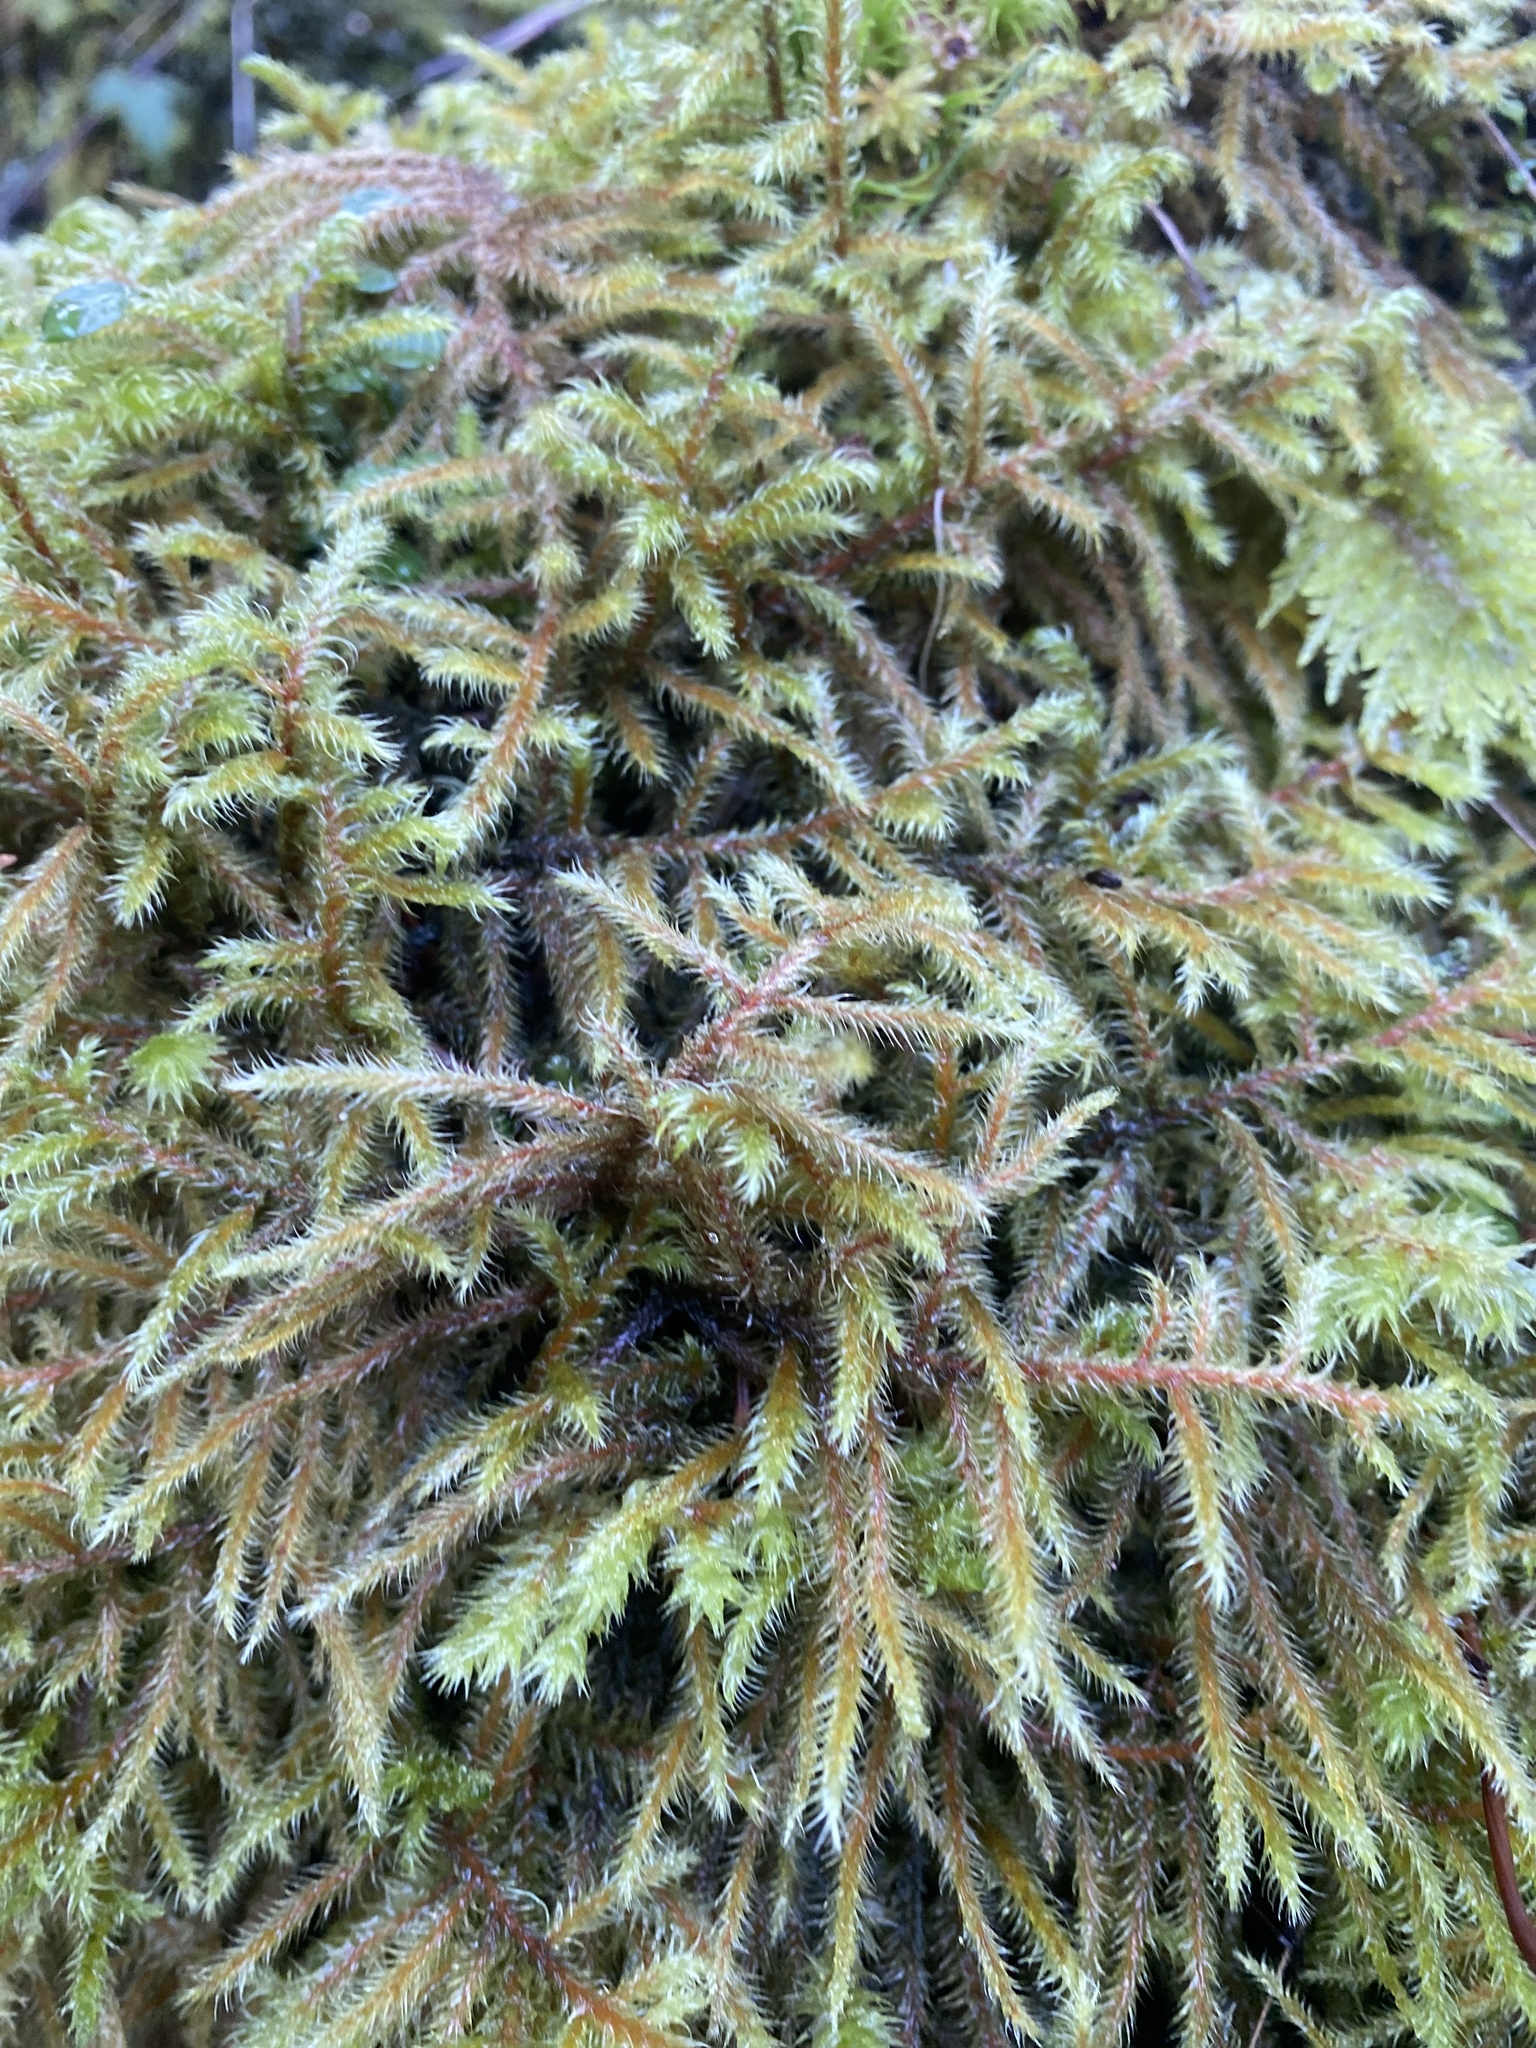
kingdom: Plantae
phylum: Bryophyta
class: Bryopsida
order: Hypnales
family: Hylocomiaceae
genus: Rhytidiadelphus
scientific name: Rhytidiadelphus loreus
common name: Lanky moss
